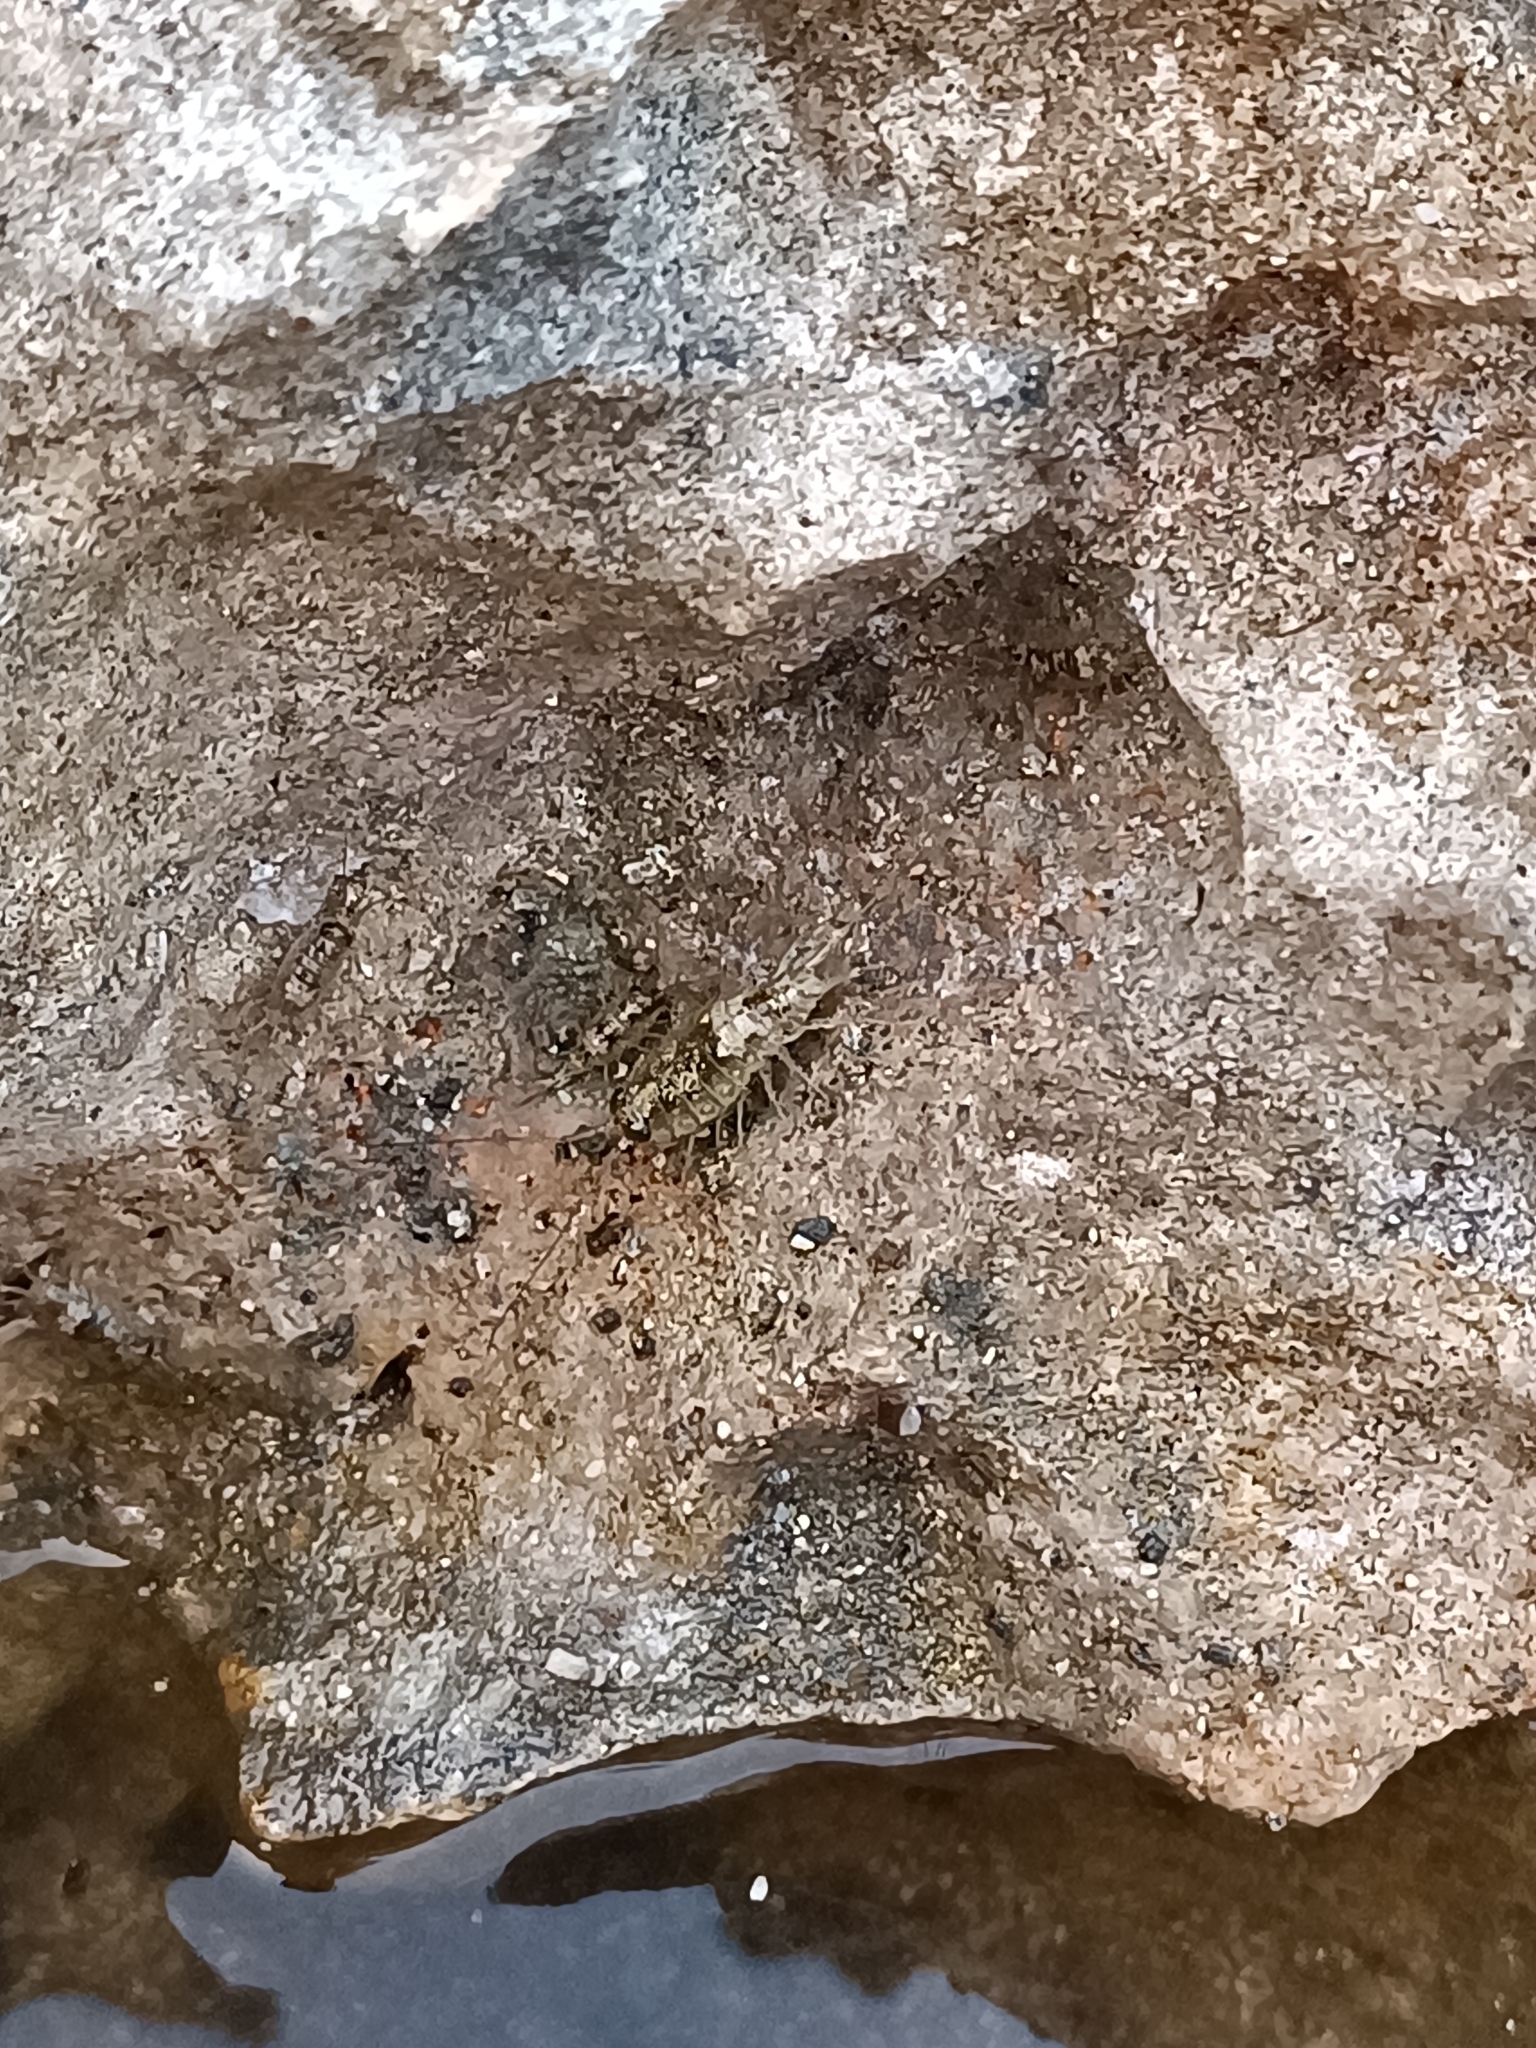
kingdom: Animalia
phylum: Arthropoda
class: Malacostraca
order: Isopoda
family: Ligiidae
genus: Ligia
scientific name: Ligia italica
